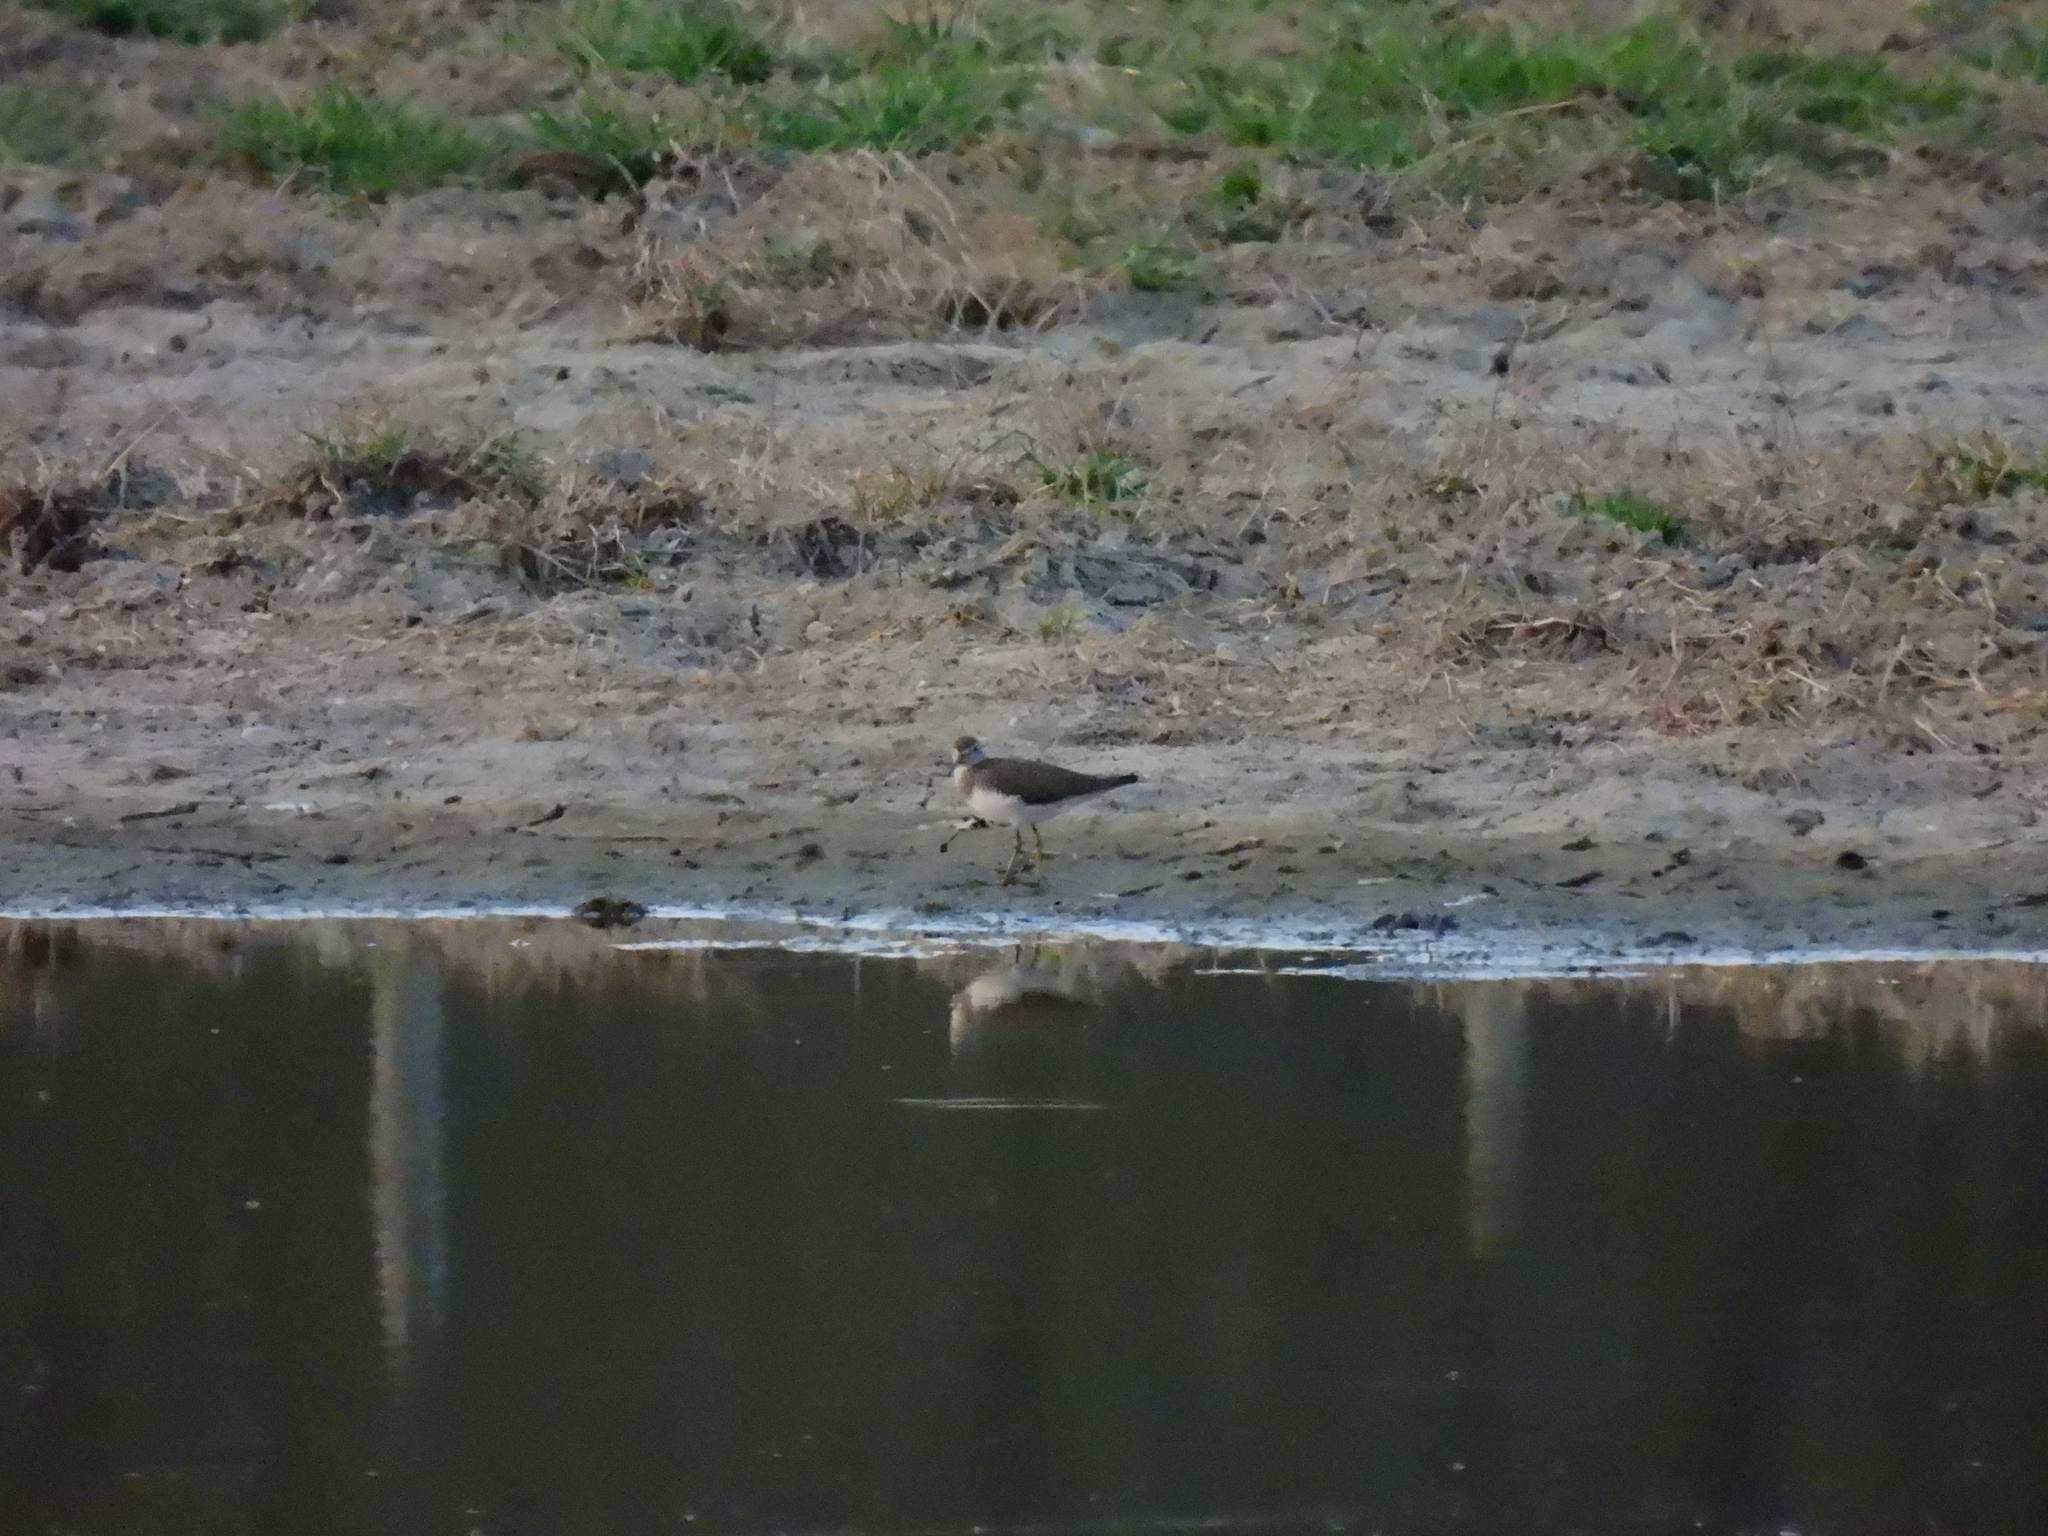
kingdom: Animalia
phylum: Chordata
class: Aves
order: Charadriiformes
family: Scolopacidae
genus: Tringa
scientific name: Tringa ochropus
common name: Green sandpiper
